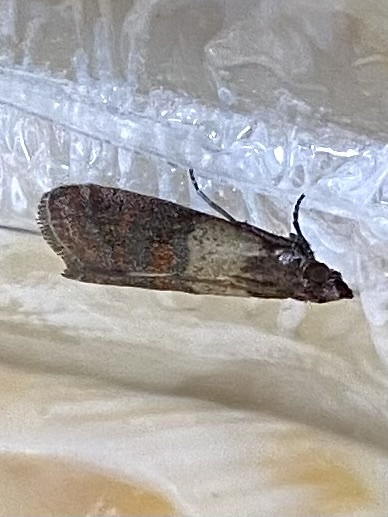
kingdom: Animalia
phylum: Arthropoda
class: Insecta
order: Lepidoptera
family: Pyralidae
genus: Plodia
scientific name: Plodia interpunctella
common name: Indian meal moth
